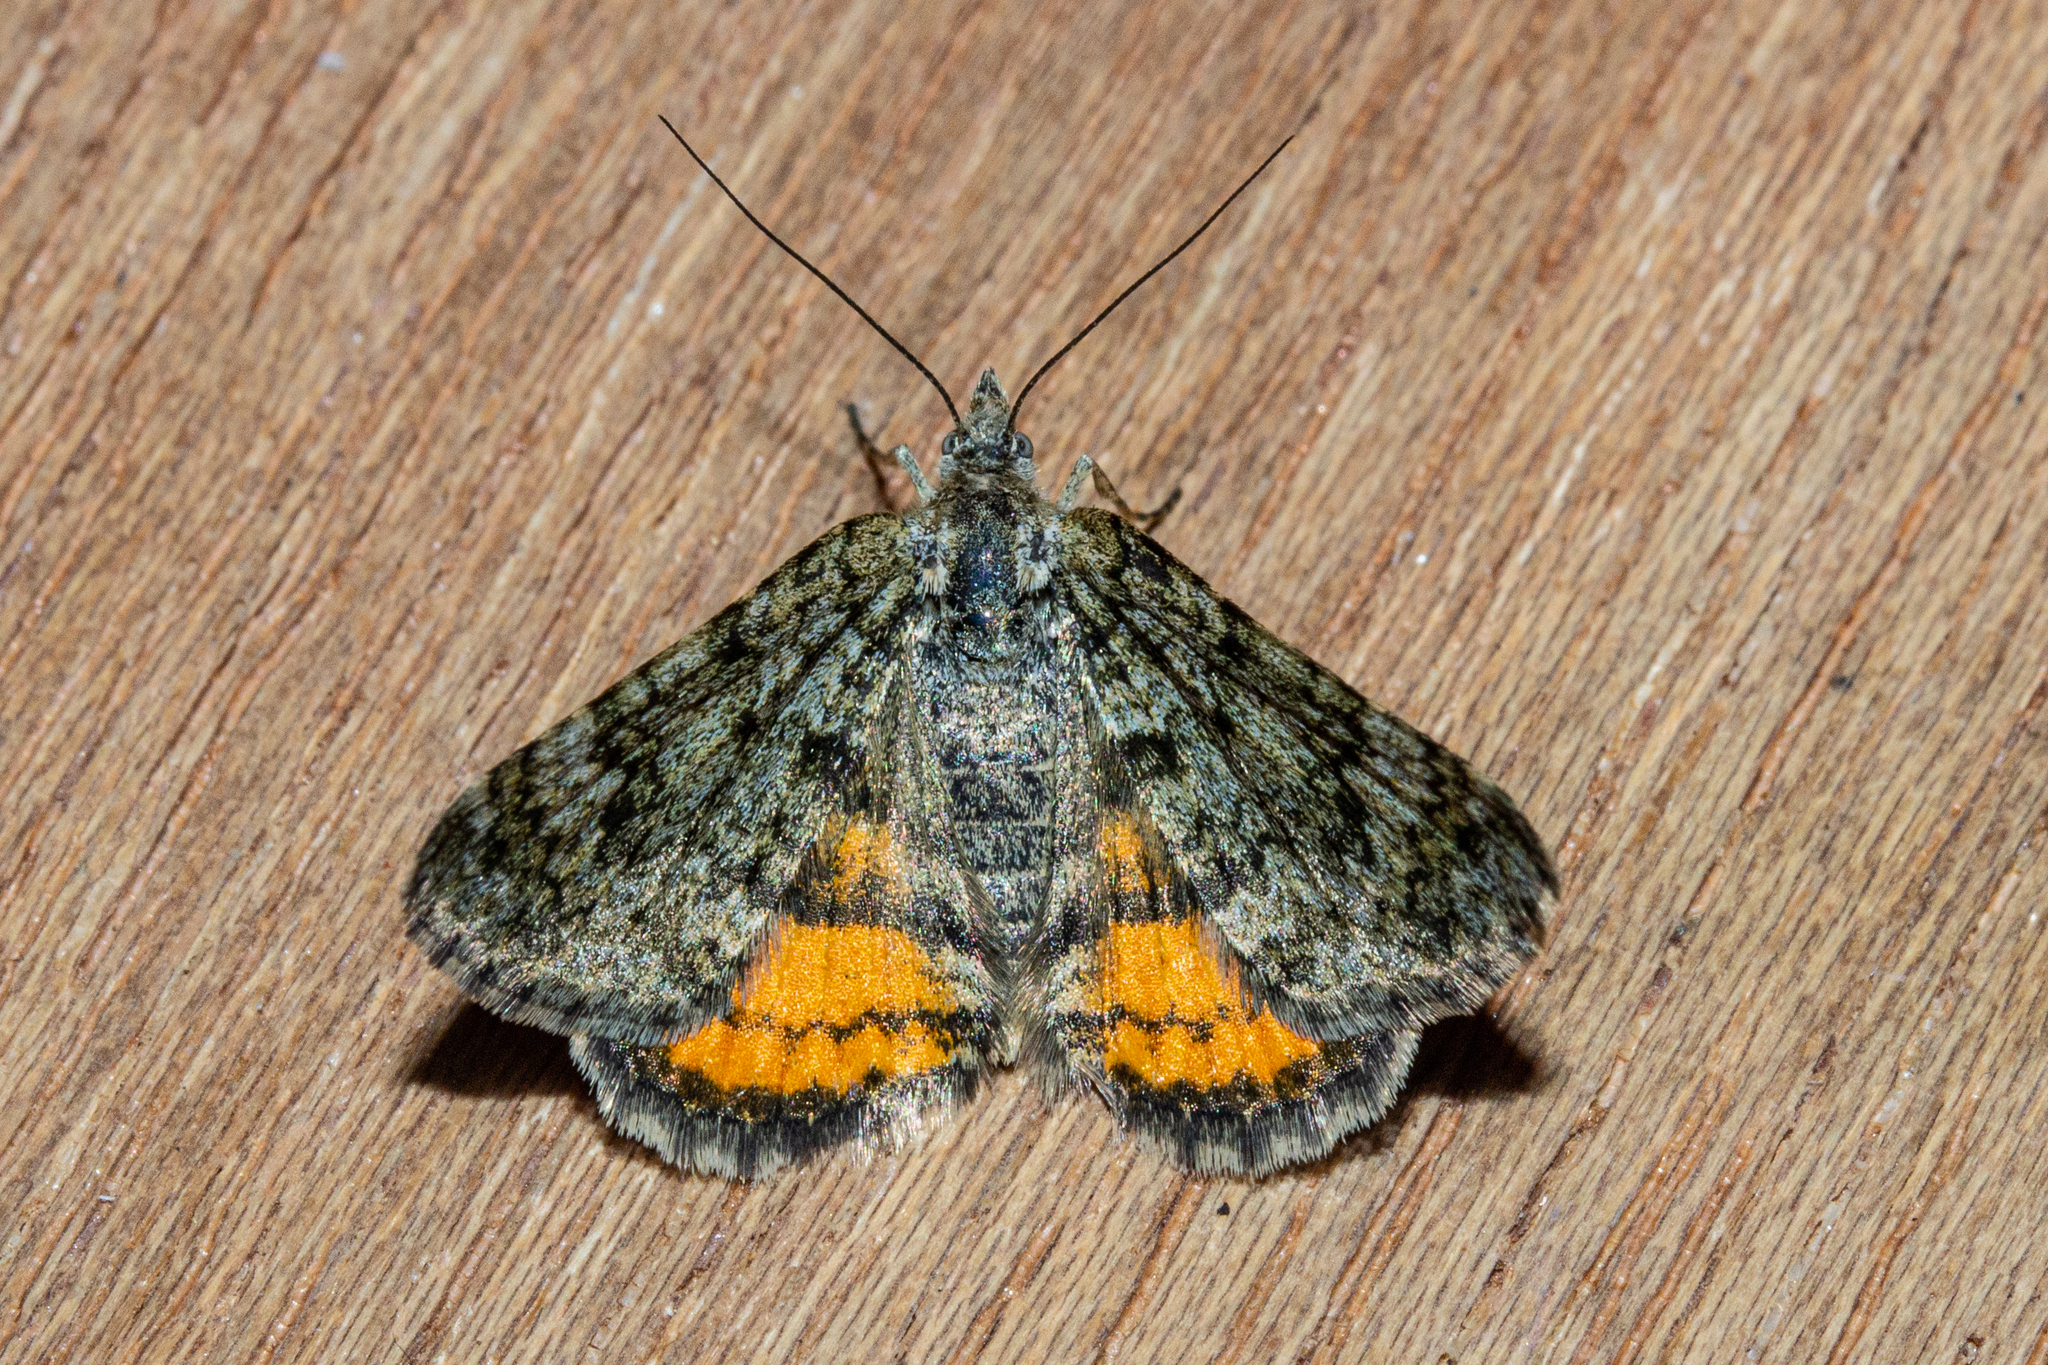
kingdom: Animalia
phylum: Arthropoda
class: Insecta
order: Lepidoptera
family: Geometridae
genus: Paranotoreas
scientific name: Paranotoreas brephosata
